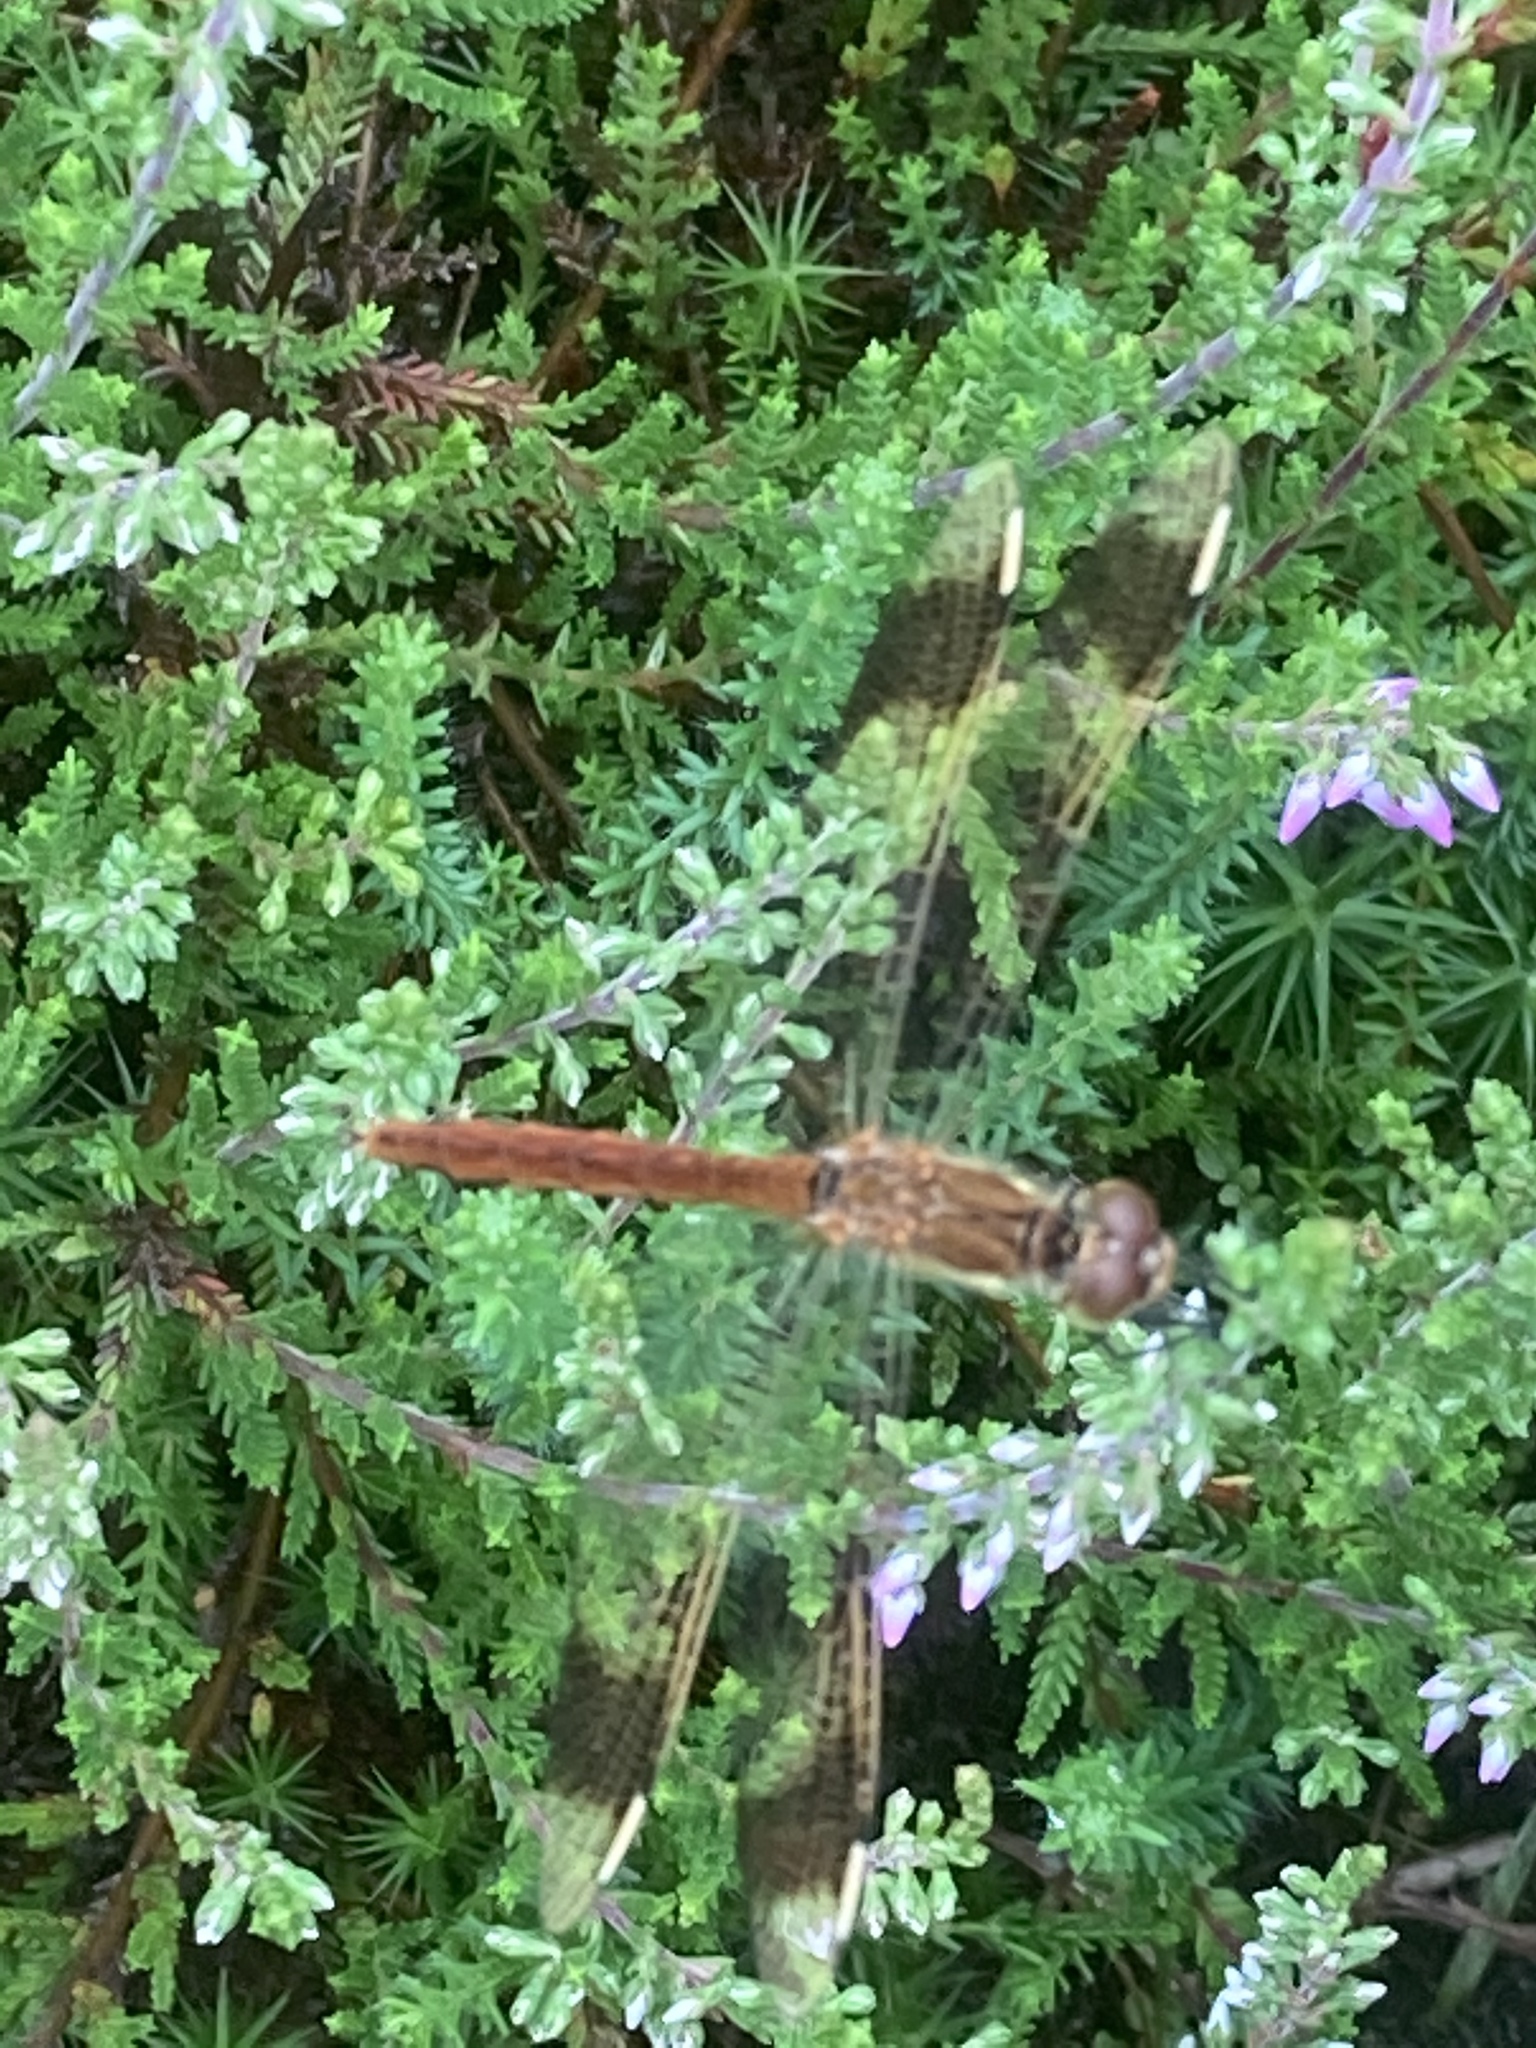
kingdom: Animalia
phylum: Arthropoda
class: Insecta
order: Odonata
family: Libellulidae
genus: Sympetrum
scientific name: Sympetrum pedemontanum
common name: Banded darter
